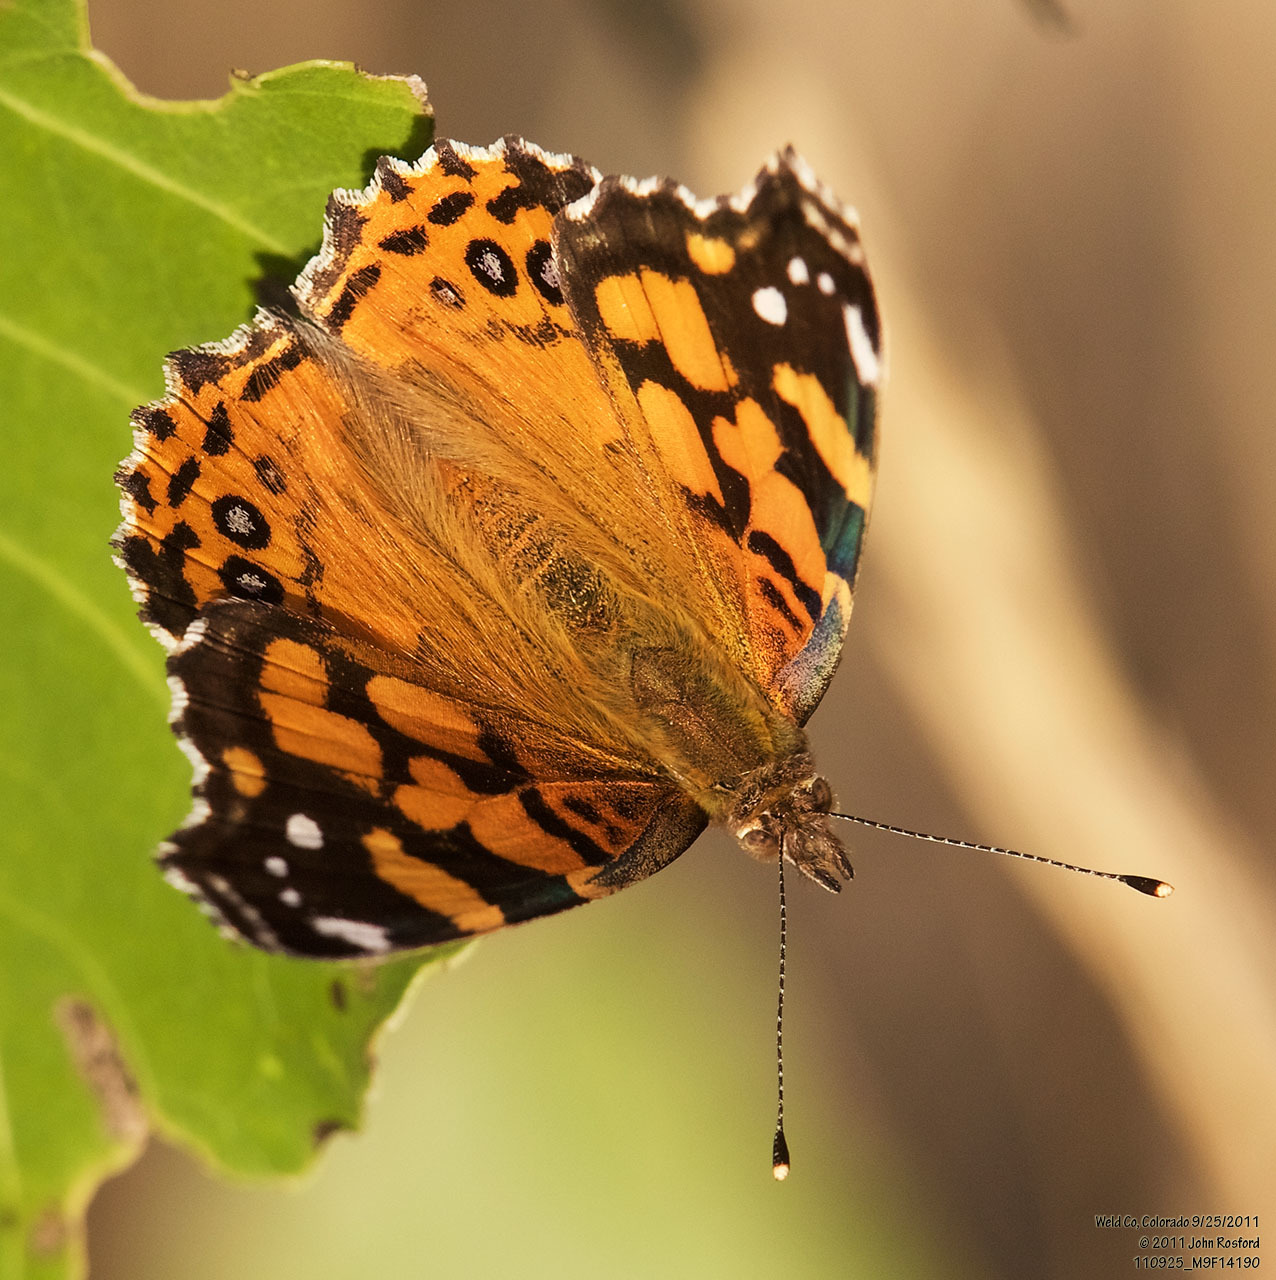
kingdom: Animalia
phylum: Arthropoda
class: Insecta
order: Lepidoptera
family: Nymphalidae
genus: Vanessa
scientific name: Vanessa annabella
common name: West coast lady
